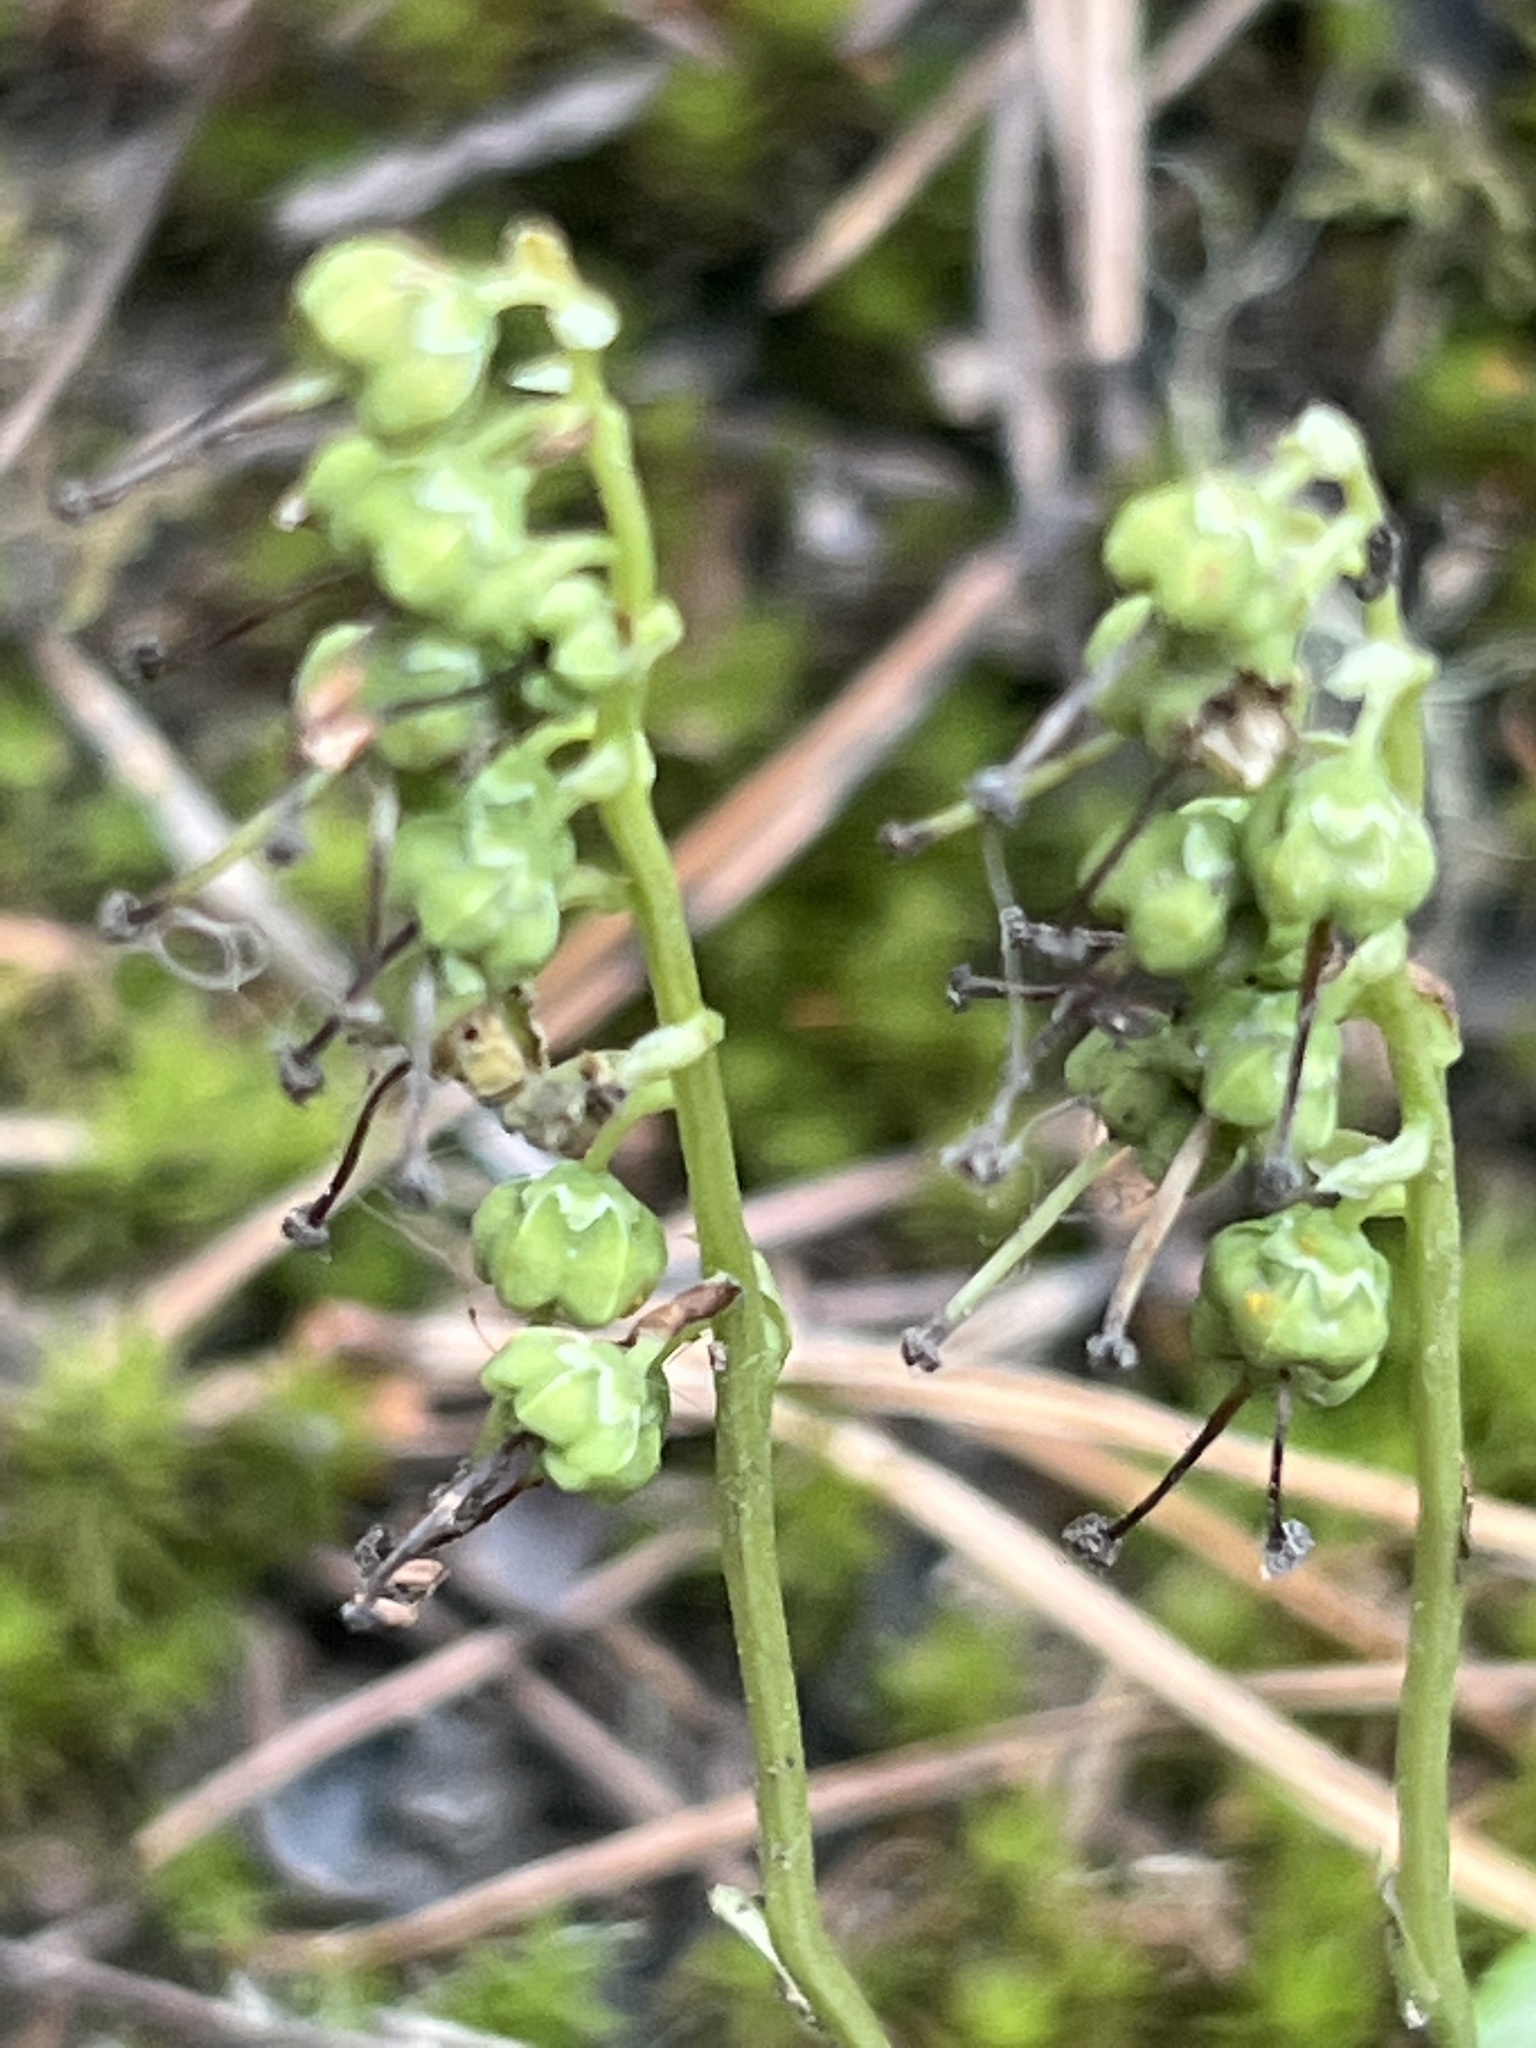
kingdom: Plantae
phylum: Tracheophyta
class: Magnoliopsida
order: Ericales
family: Ericaceae
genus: Orthilia
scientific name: Orthilia secunda
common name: One-sided orthilia
